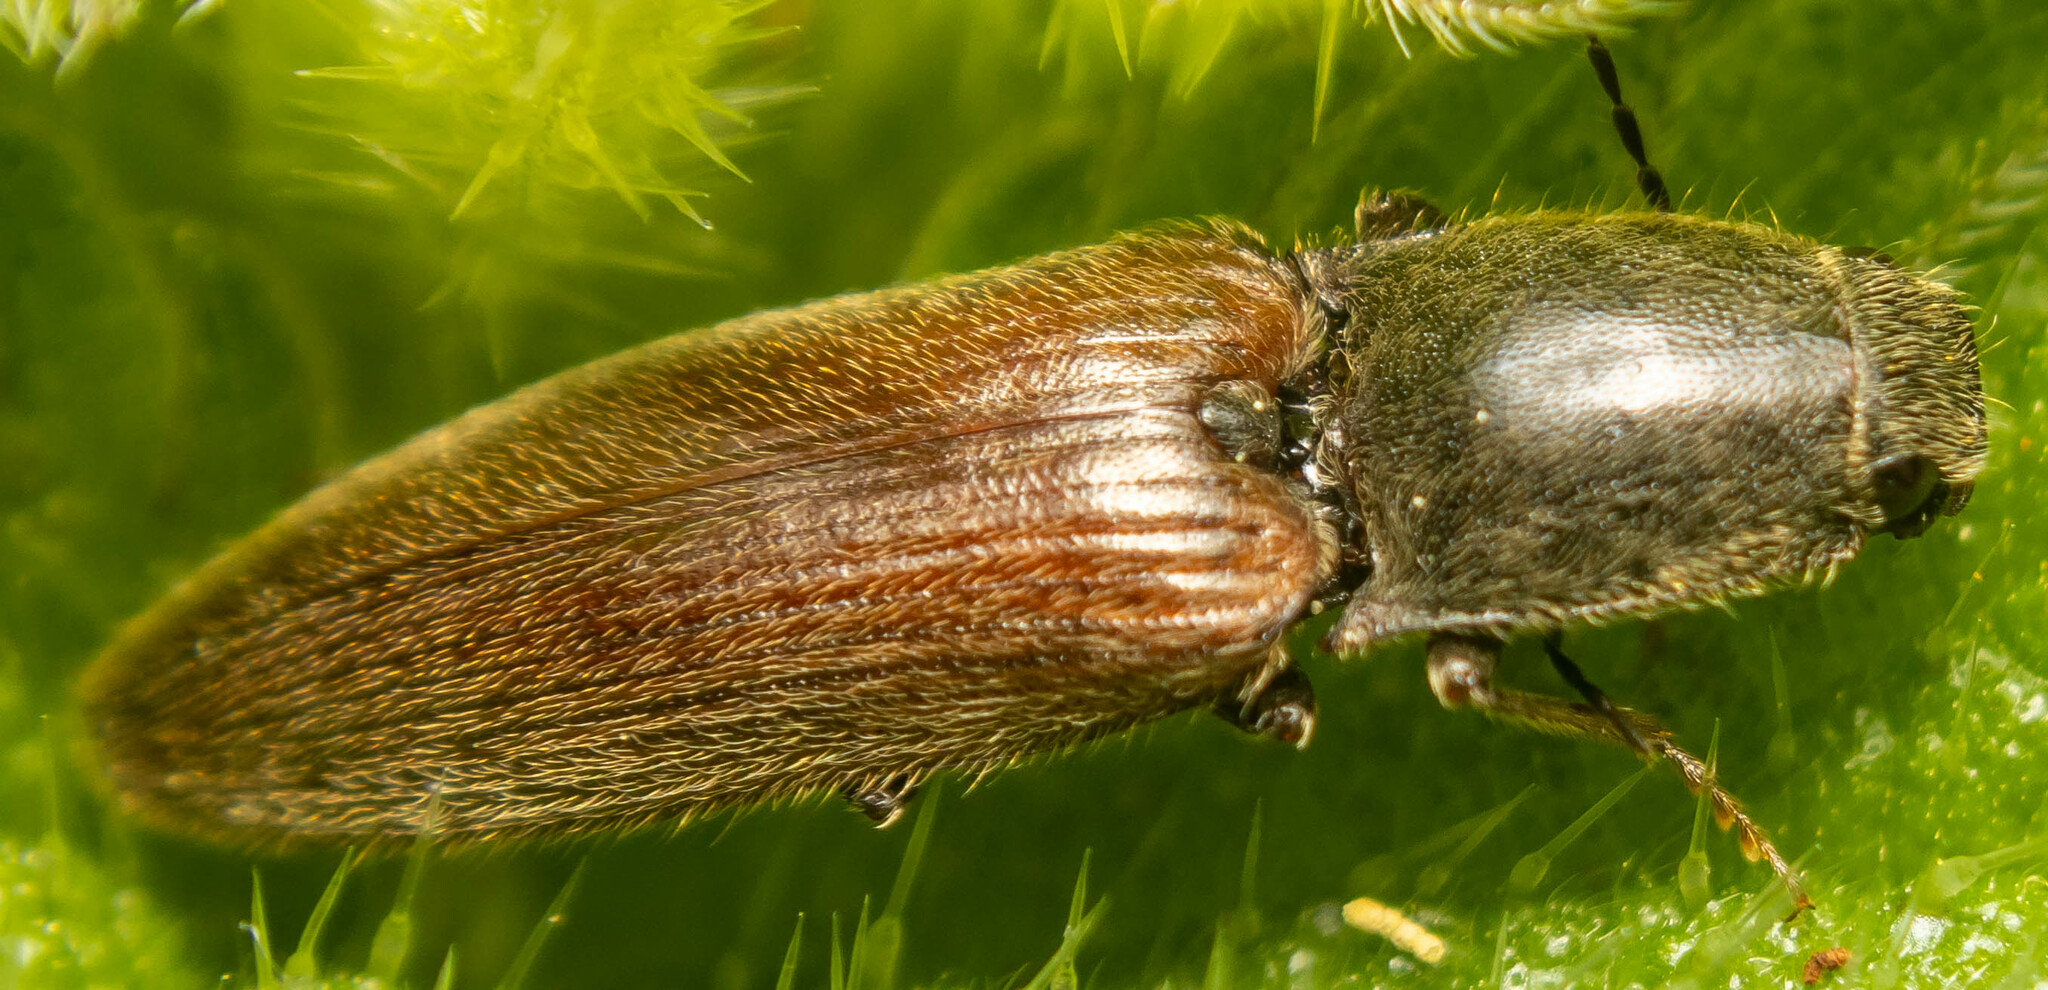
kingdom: Animalia
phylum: Arthropoda
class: Insecta
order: Coleoptera
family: Elateridae
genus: Athous
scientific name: Athous haemorrhoidalis
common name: Red-brown click beetle
